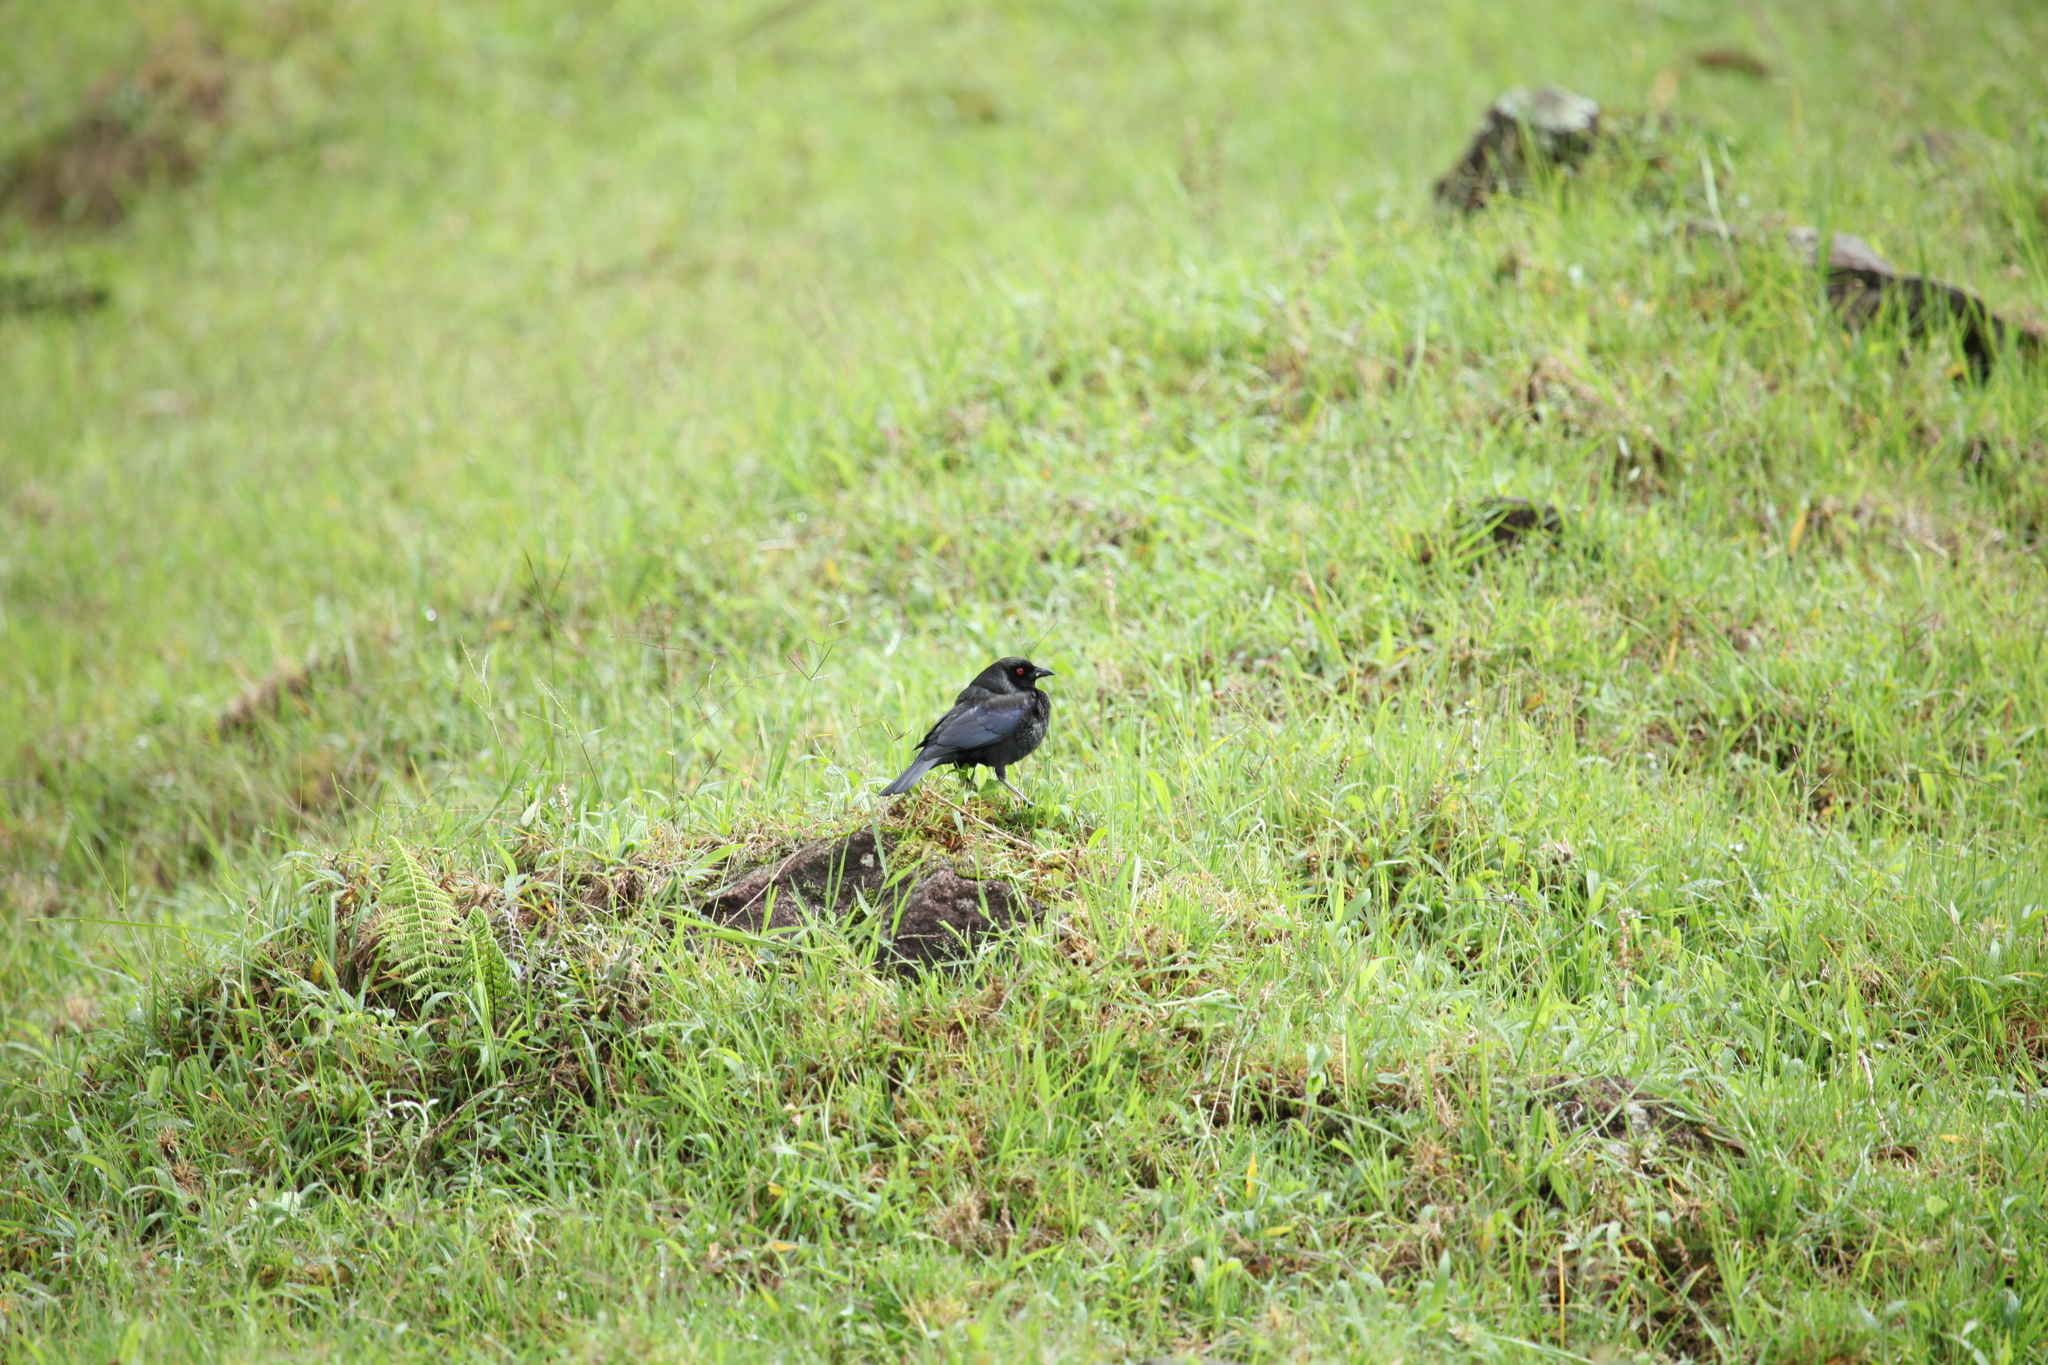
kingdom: Animalia
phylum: Chordata
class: Aves
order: Passeriformes
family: Icteridae
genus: Molothrus
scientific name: Molothrus aeneus
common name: Bronzed cowbird
